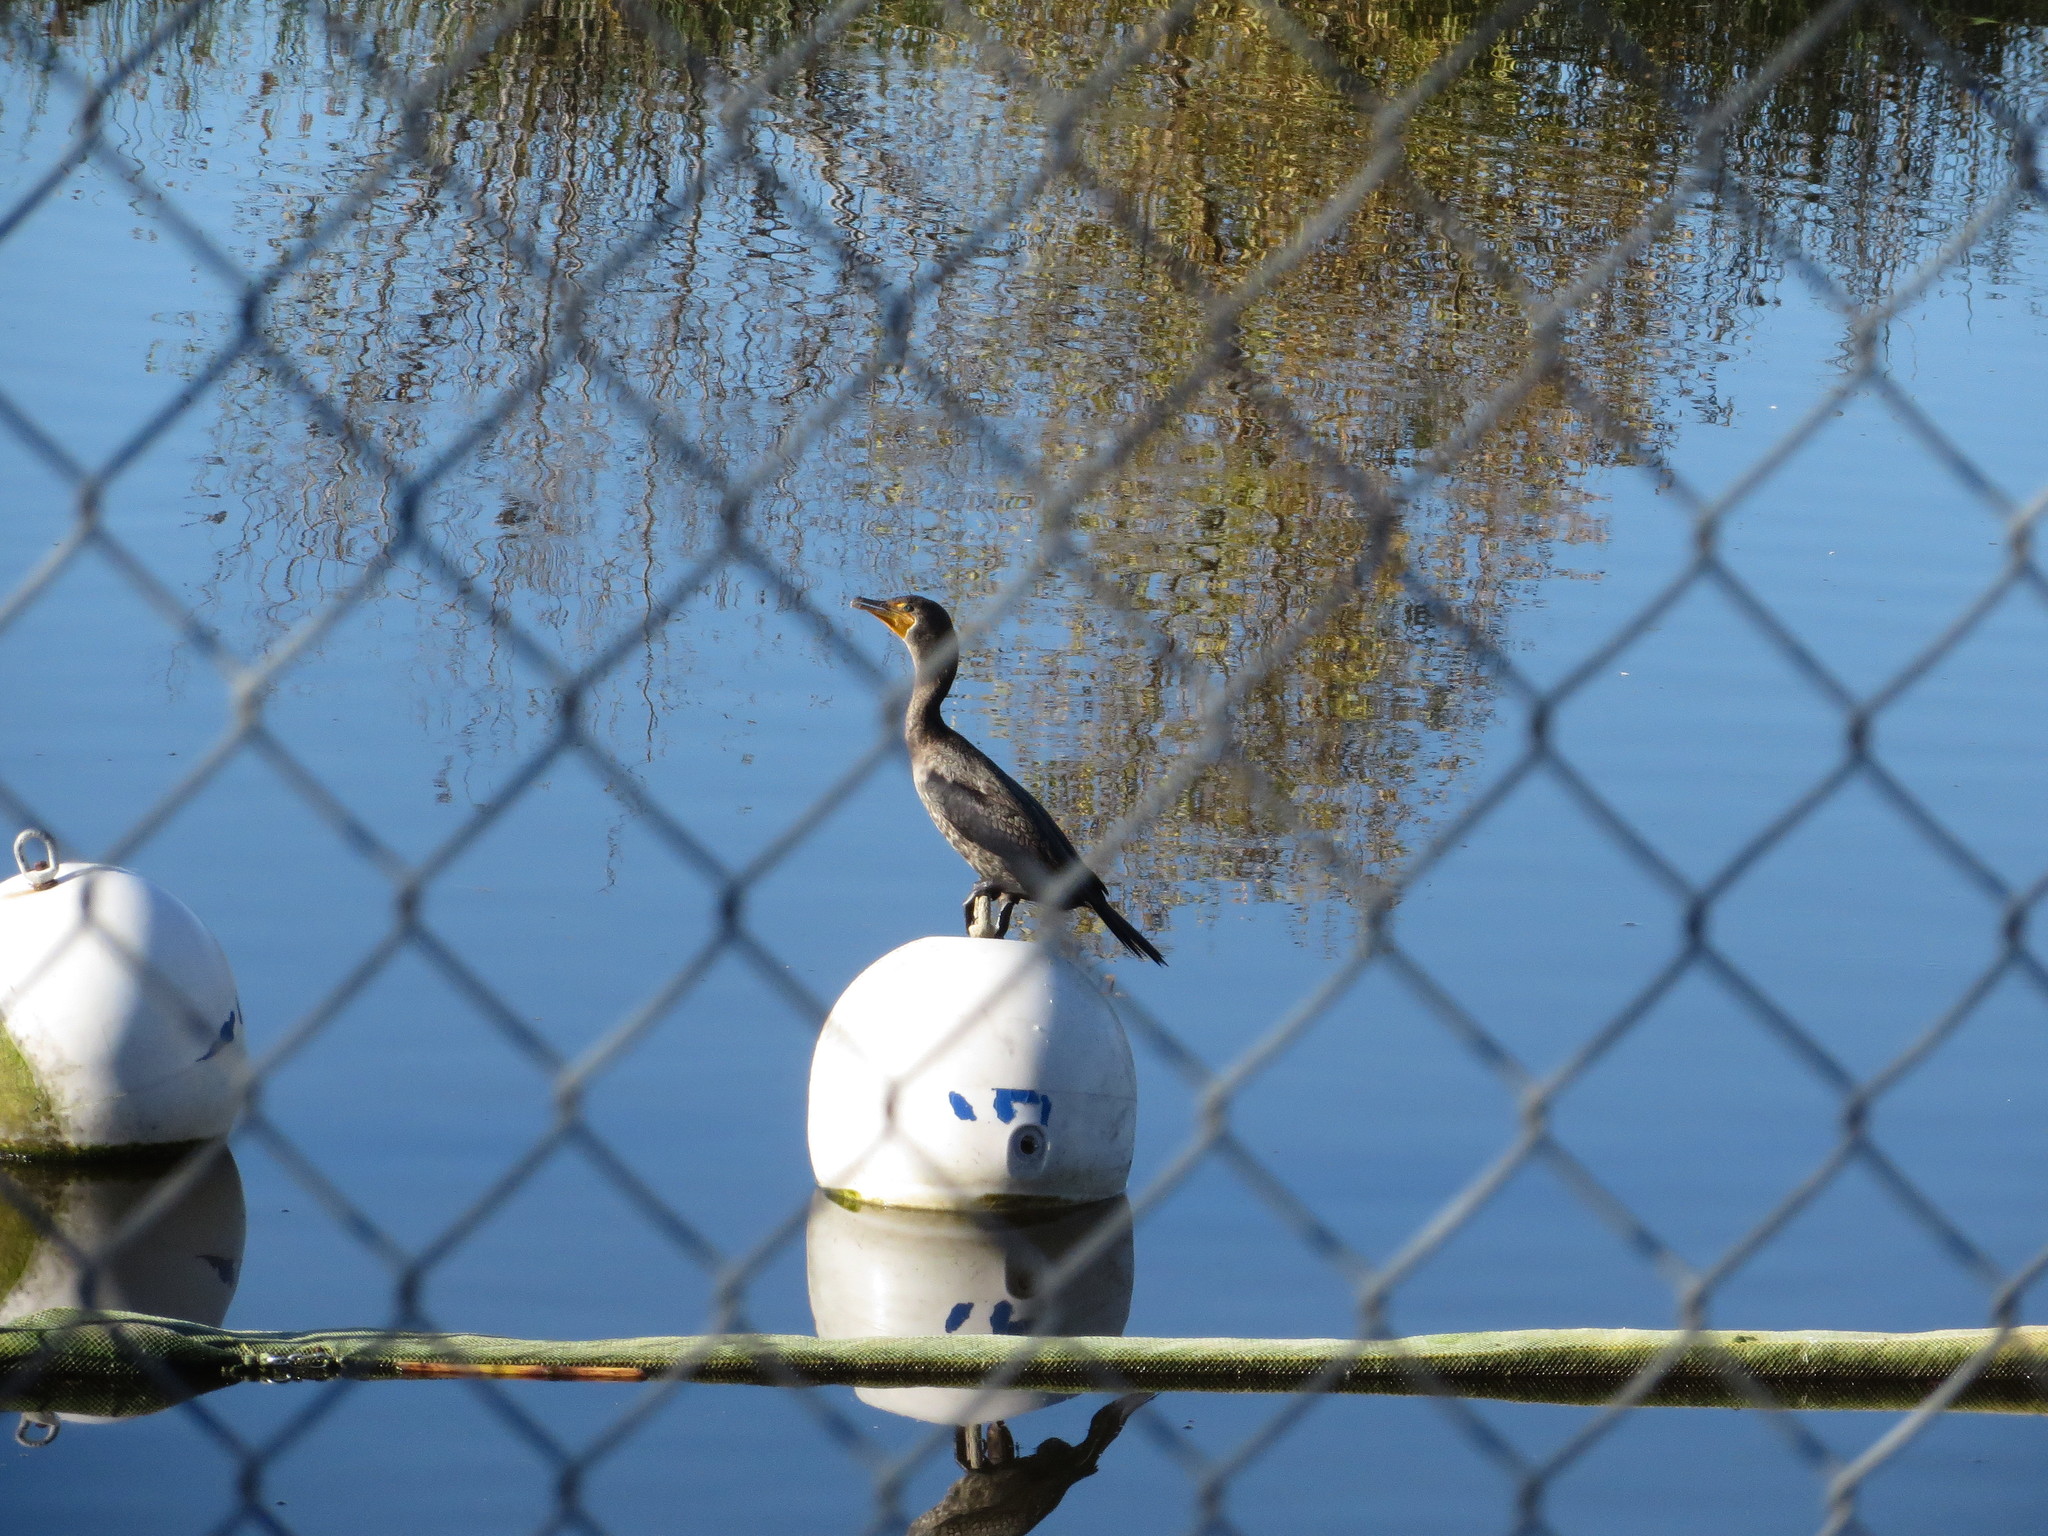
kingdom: Animalia
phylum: Chordata
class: Aves
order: Suliformes
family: Phalacrocoracidae
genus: Phalacrocorax
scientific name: Phalacrocorax auritus
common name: Double-crested cormorant
